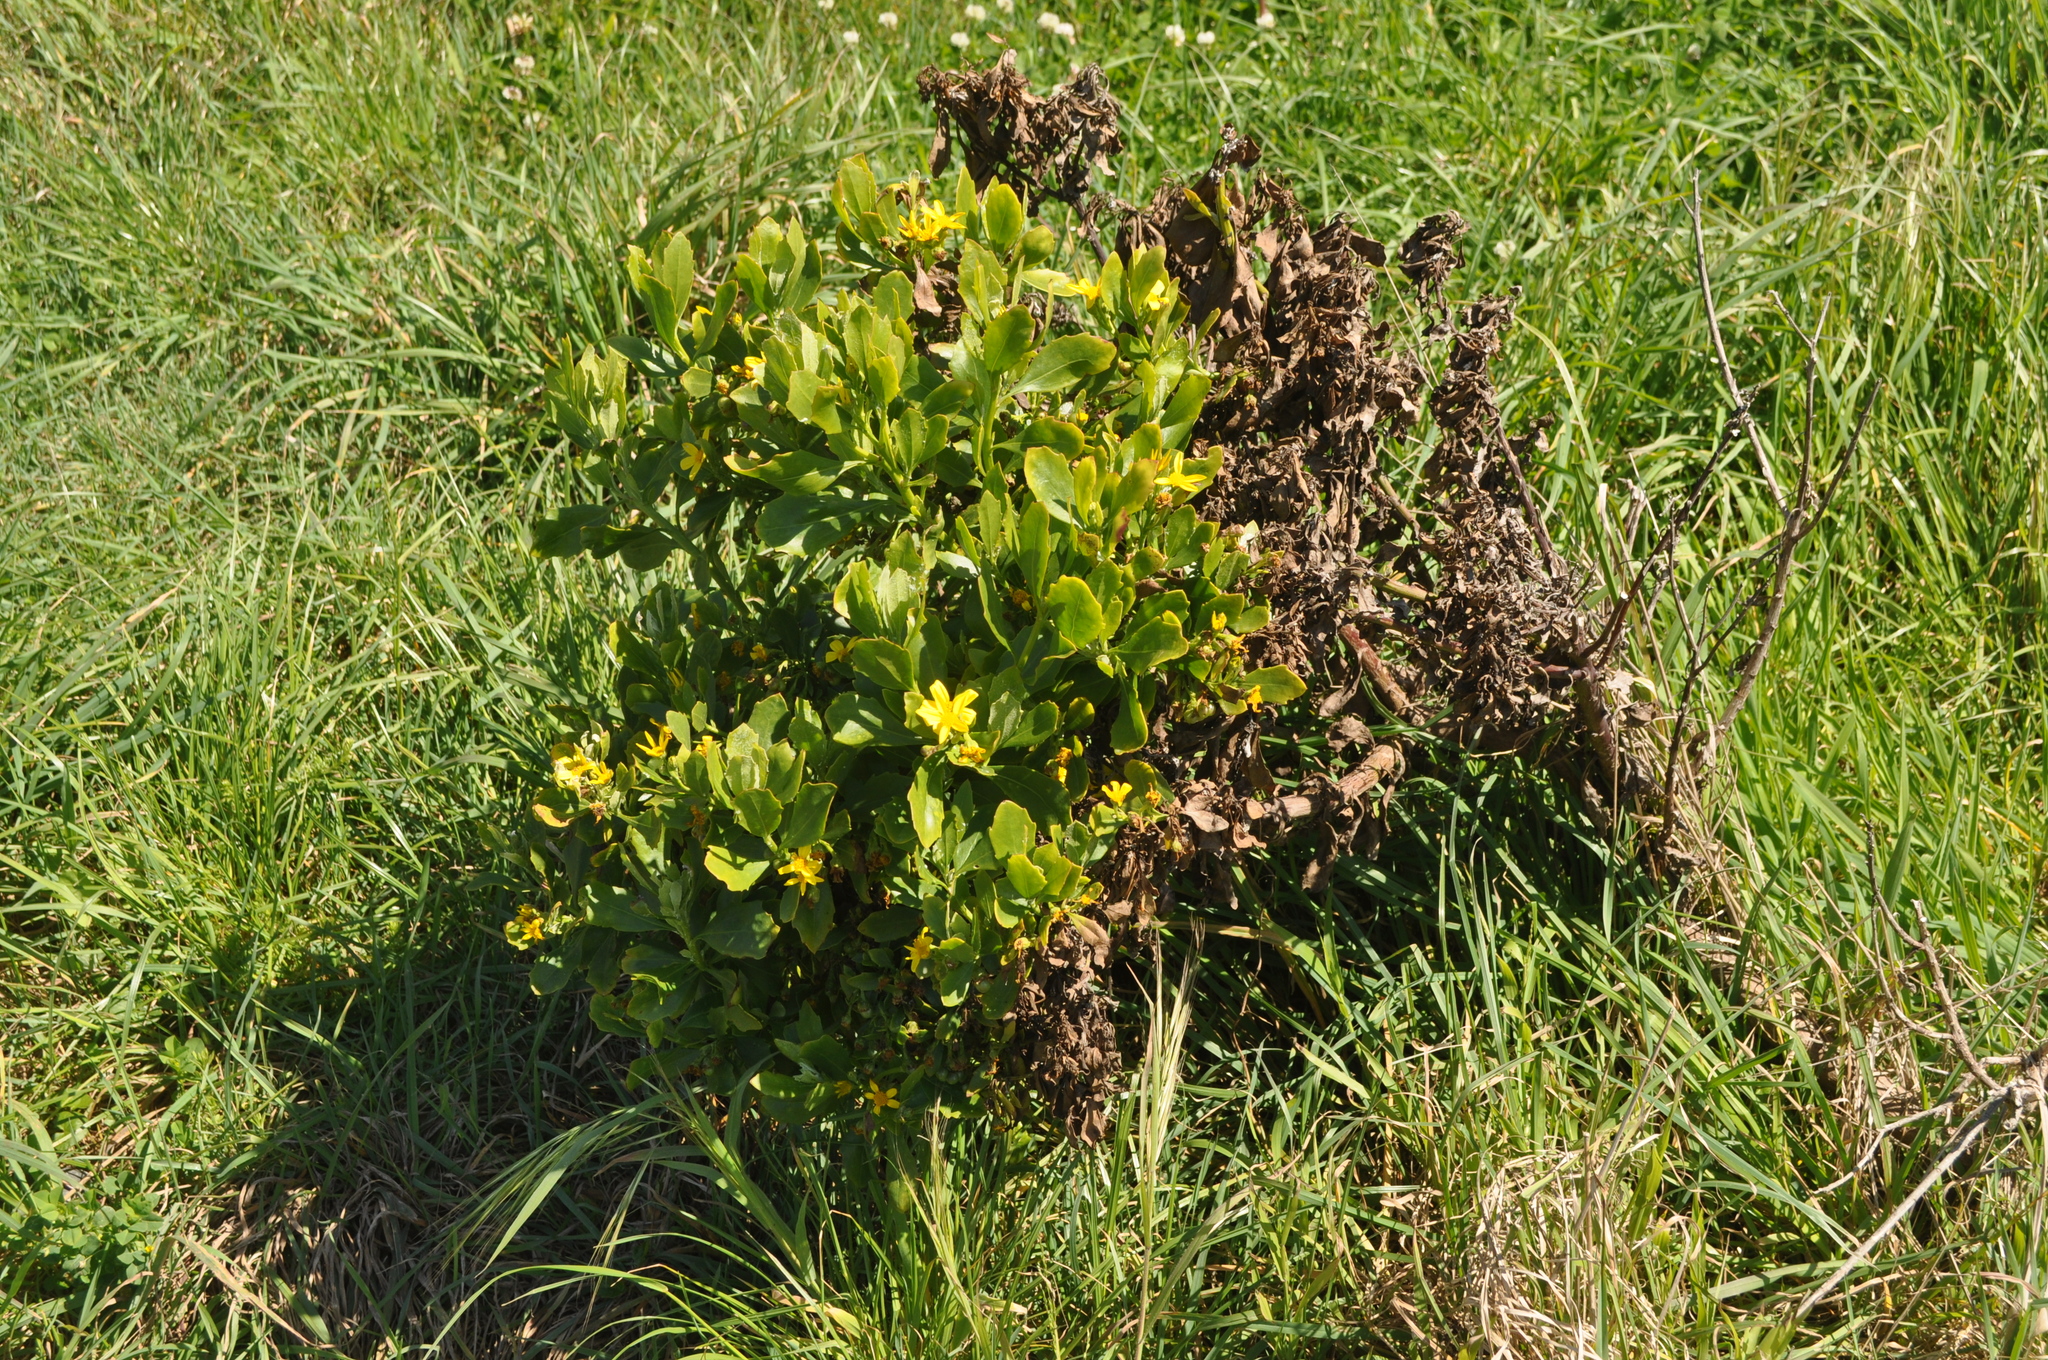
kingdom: Plantae
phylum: Tracheophyta
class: Magnoliopsida
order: Asterales
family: Asteraceae
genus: Osteospermum
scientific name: Osteospermum moniliferum
